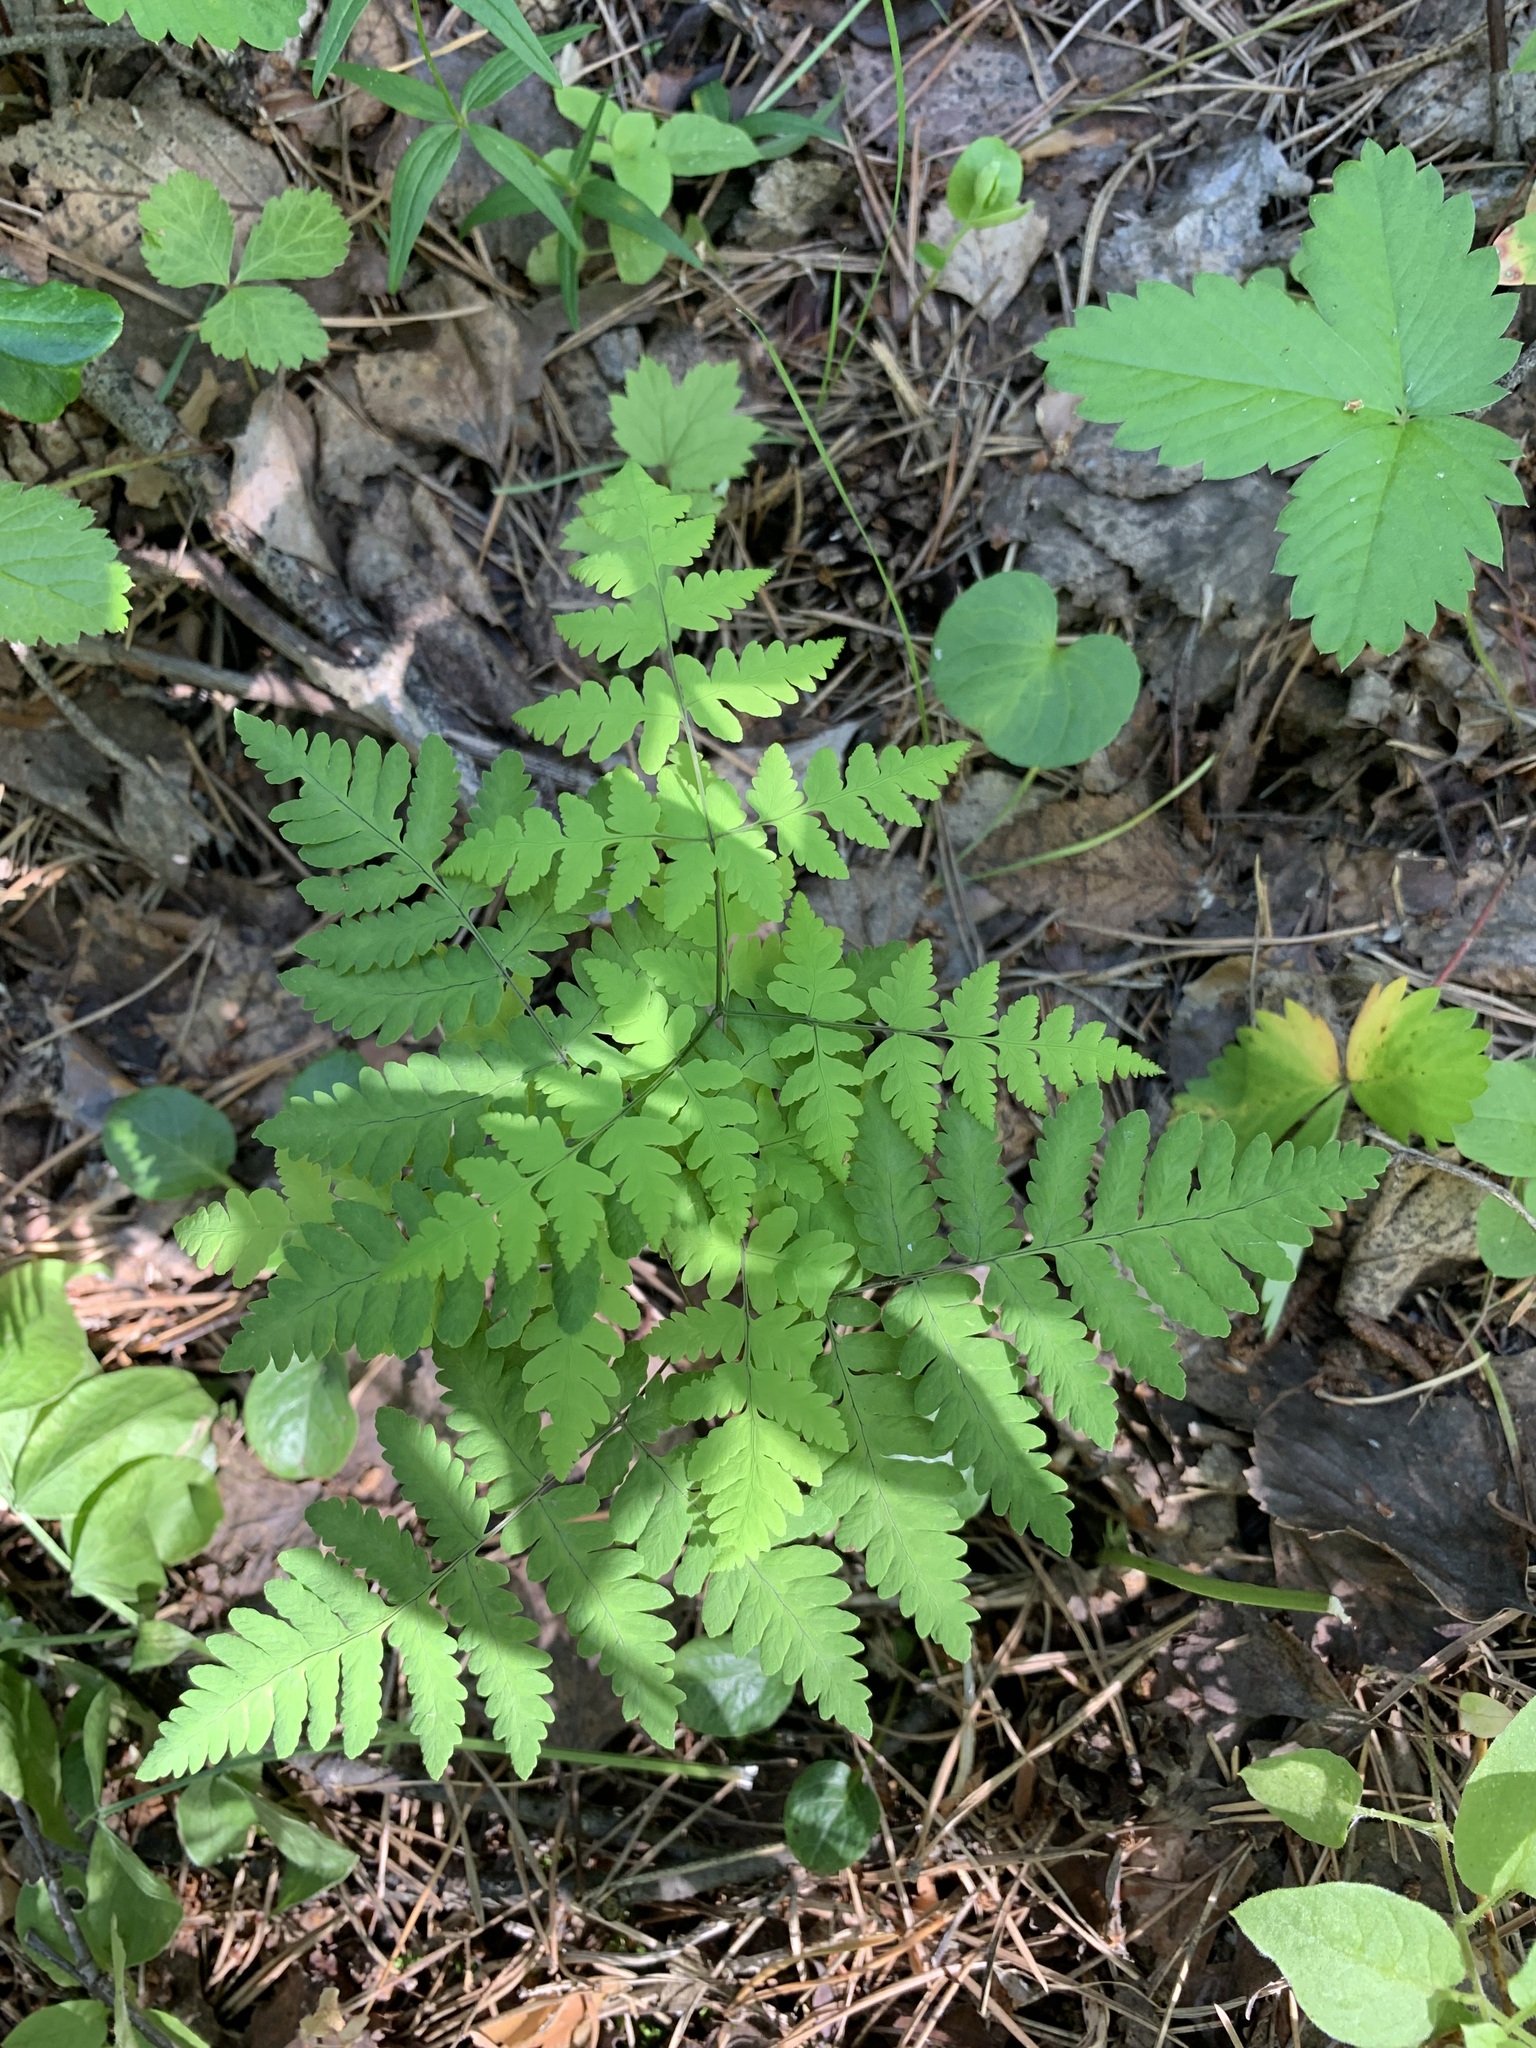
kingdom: Plantae
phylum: Tracheophyta
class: Polypodiopsida
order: Polypodiales
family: Cystopteridaceae
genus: Gymnocarpium
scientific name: Gymnocarpium dryopteris
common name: Oak fern
